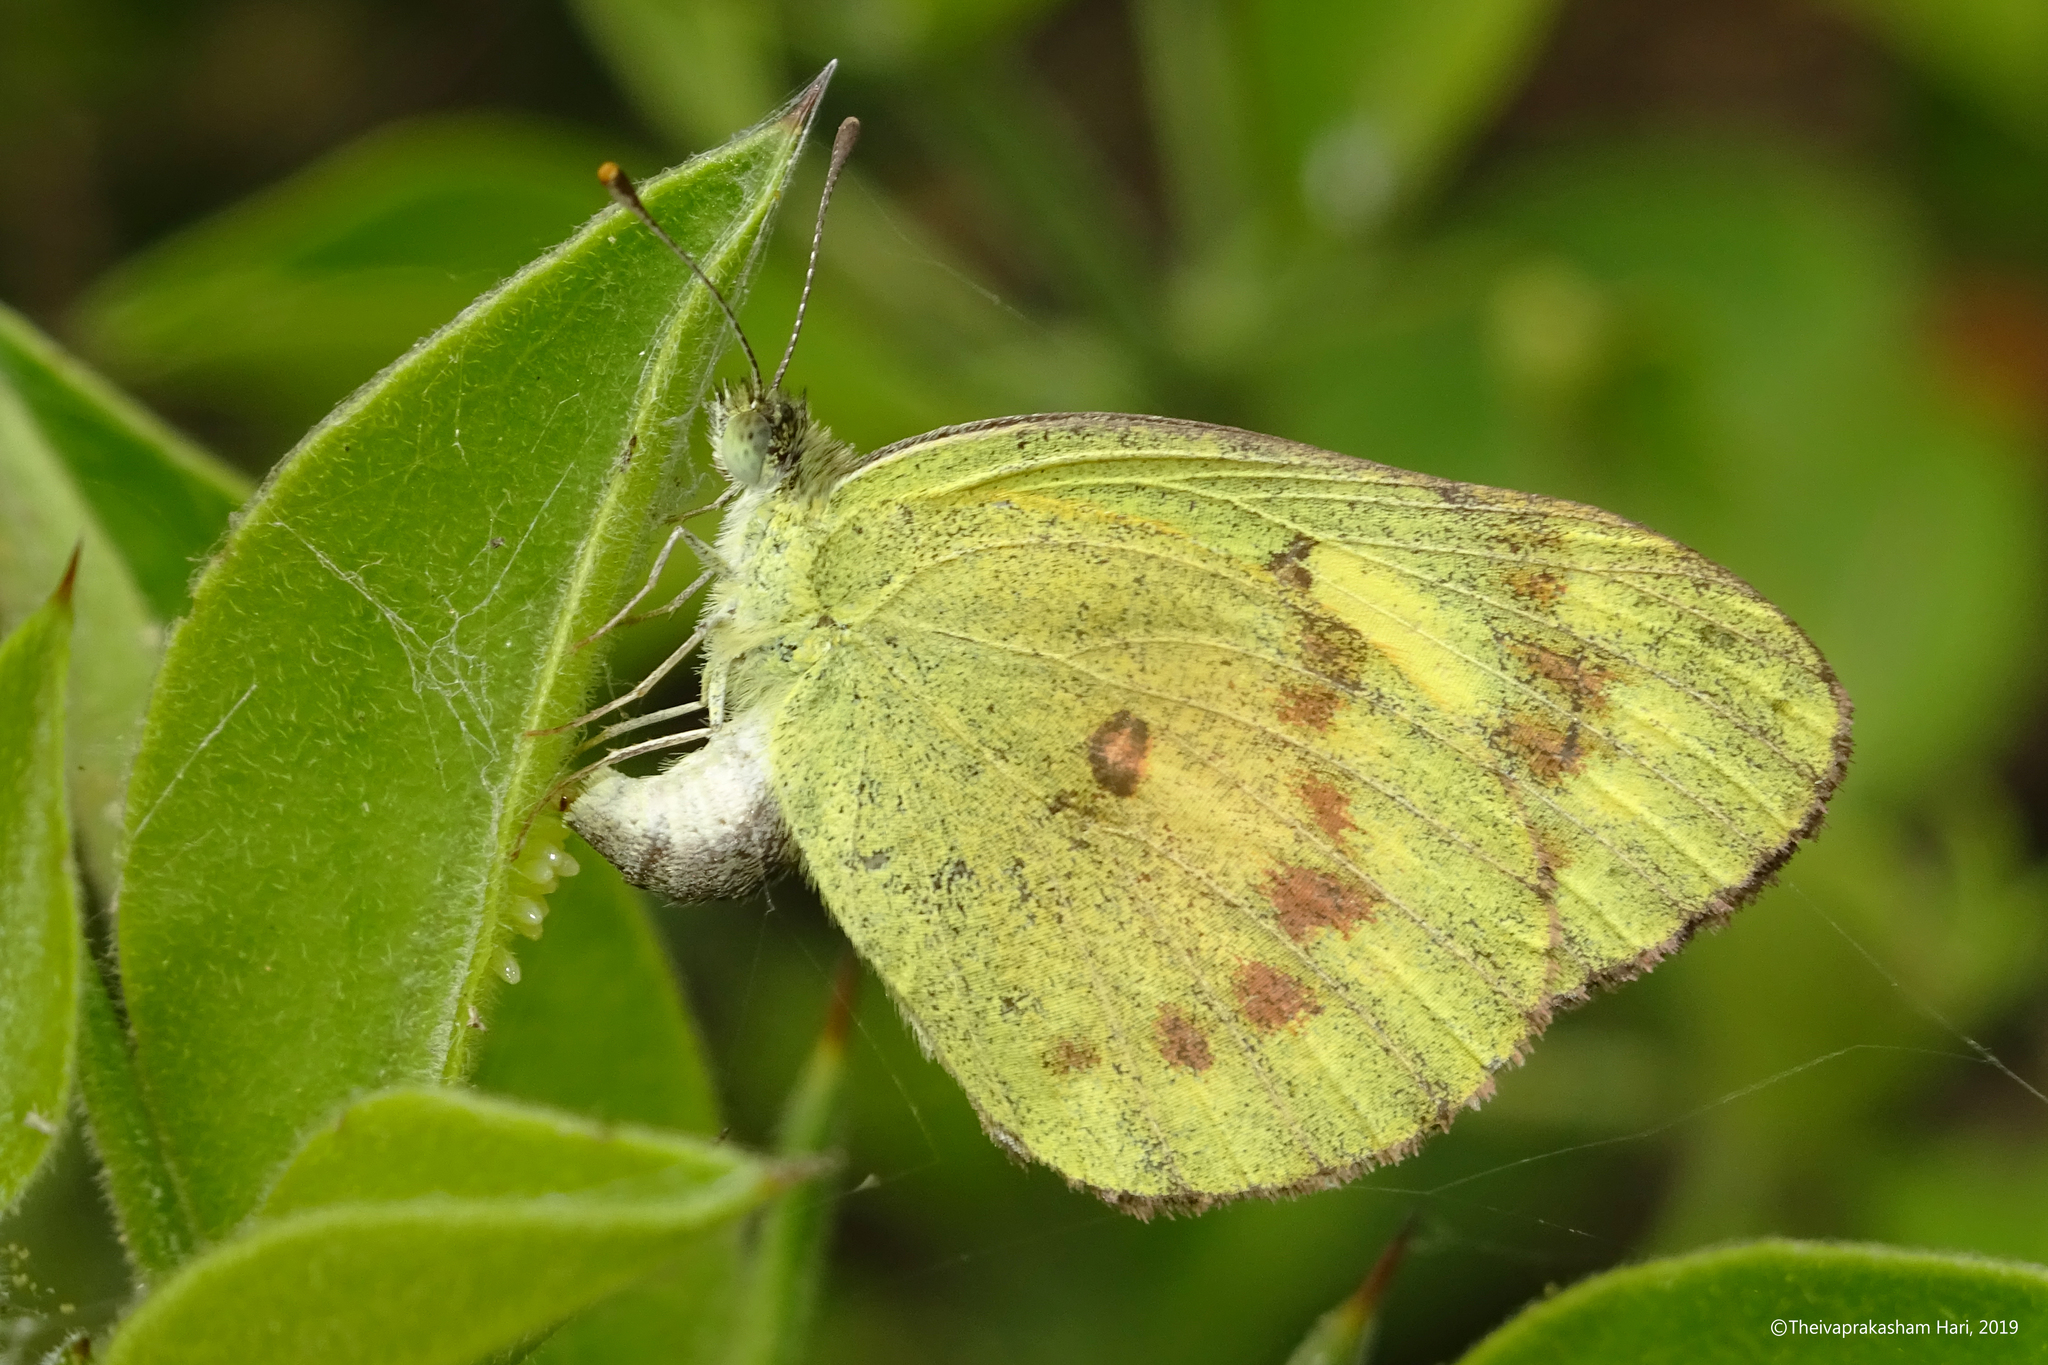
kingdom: Animalia
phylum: Arthropoda
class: Insecta
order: Lepidoptera
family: Pieridae
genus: Colotis
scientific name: Colotis amata
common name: Small salmon arab
